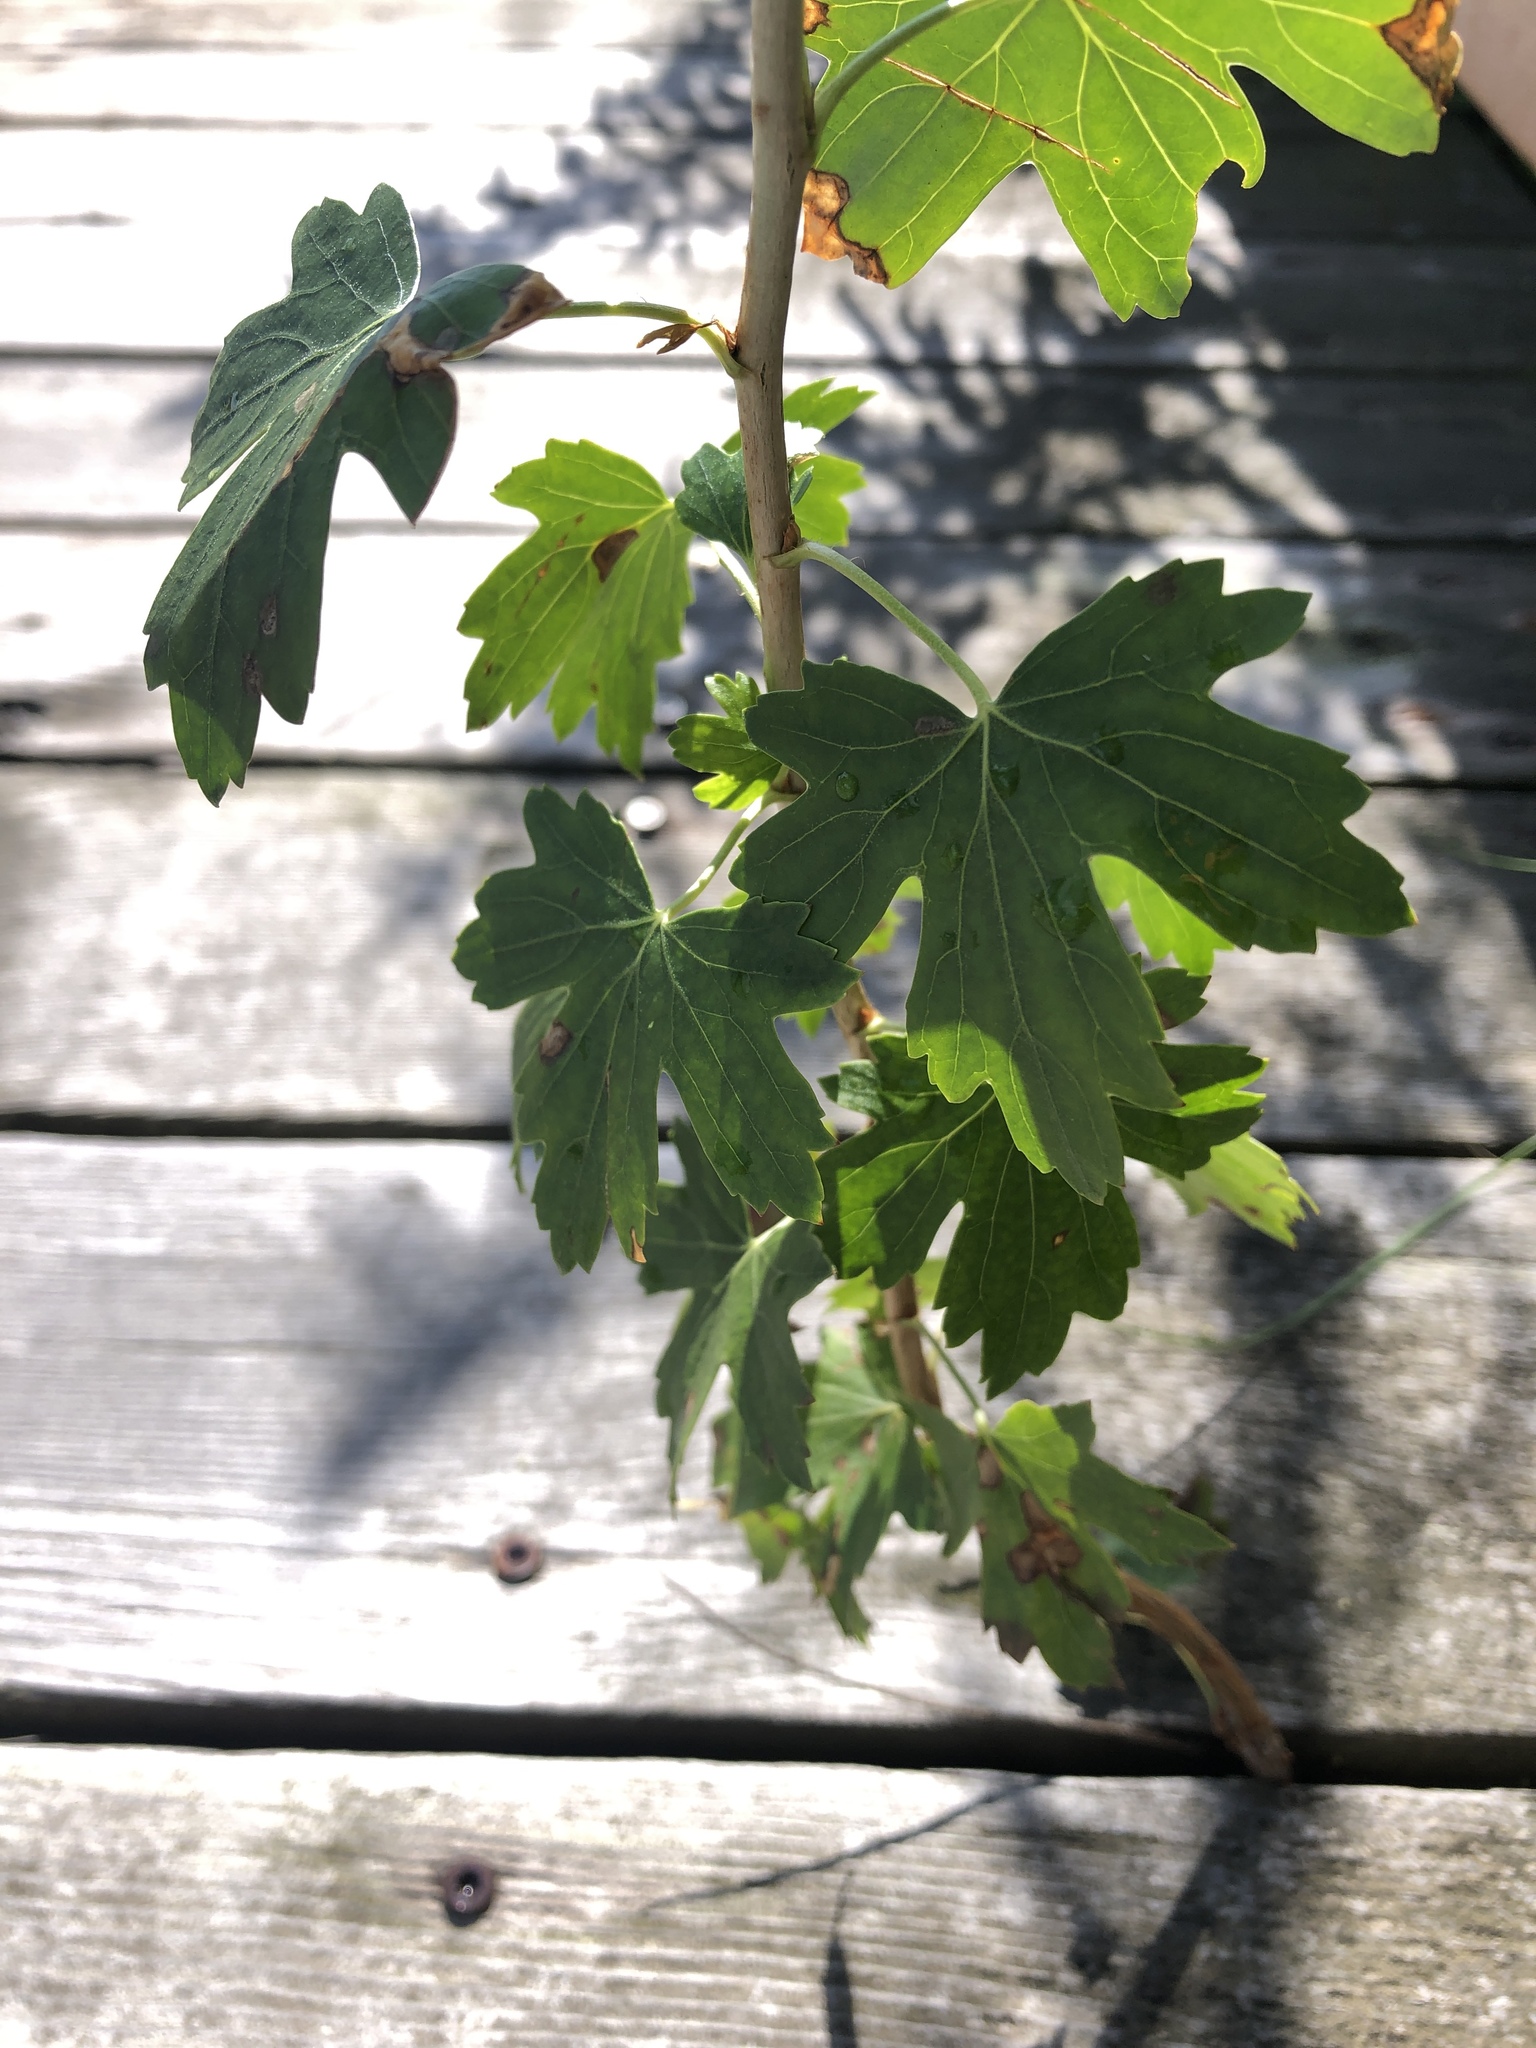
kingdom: Plantae
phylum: Tracheophyta
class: Magnoliopsida
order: Saxifragales
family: Grossulariaceae
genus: Ribes
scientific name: Ribes aureum
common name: Golden currant
